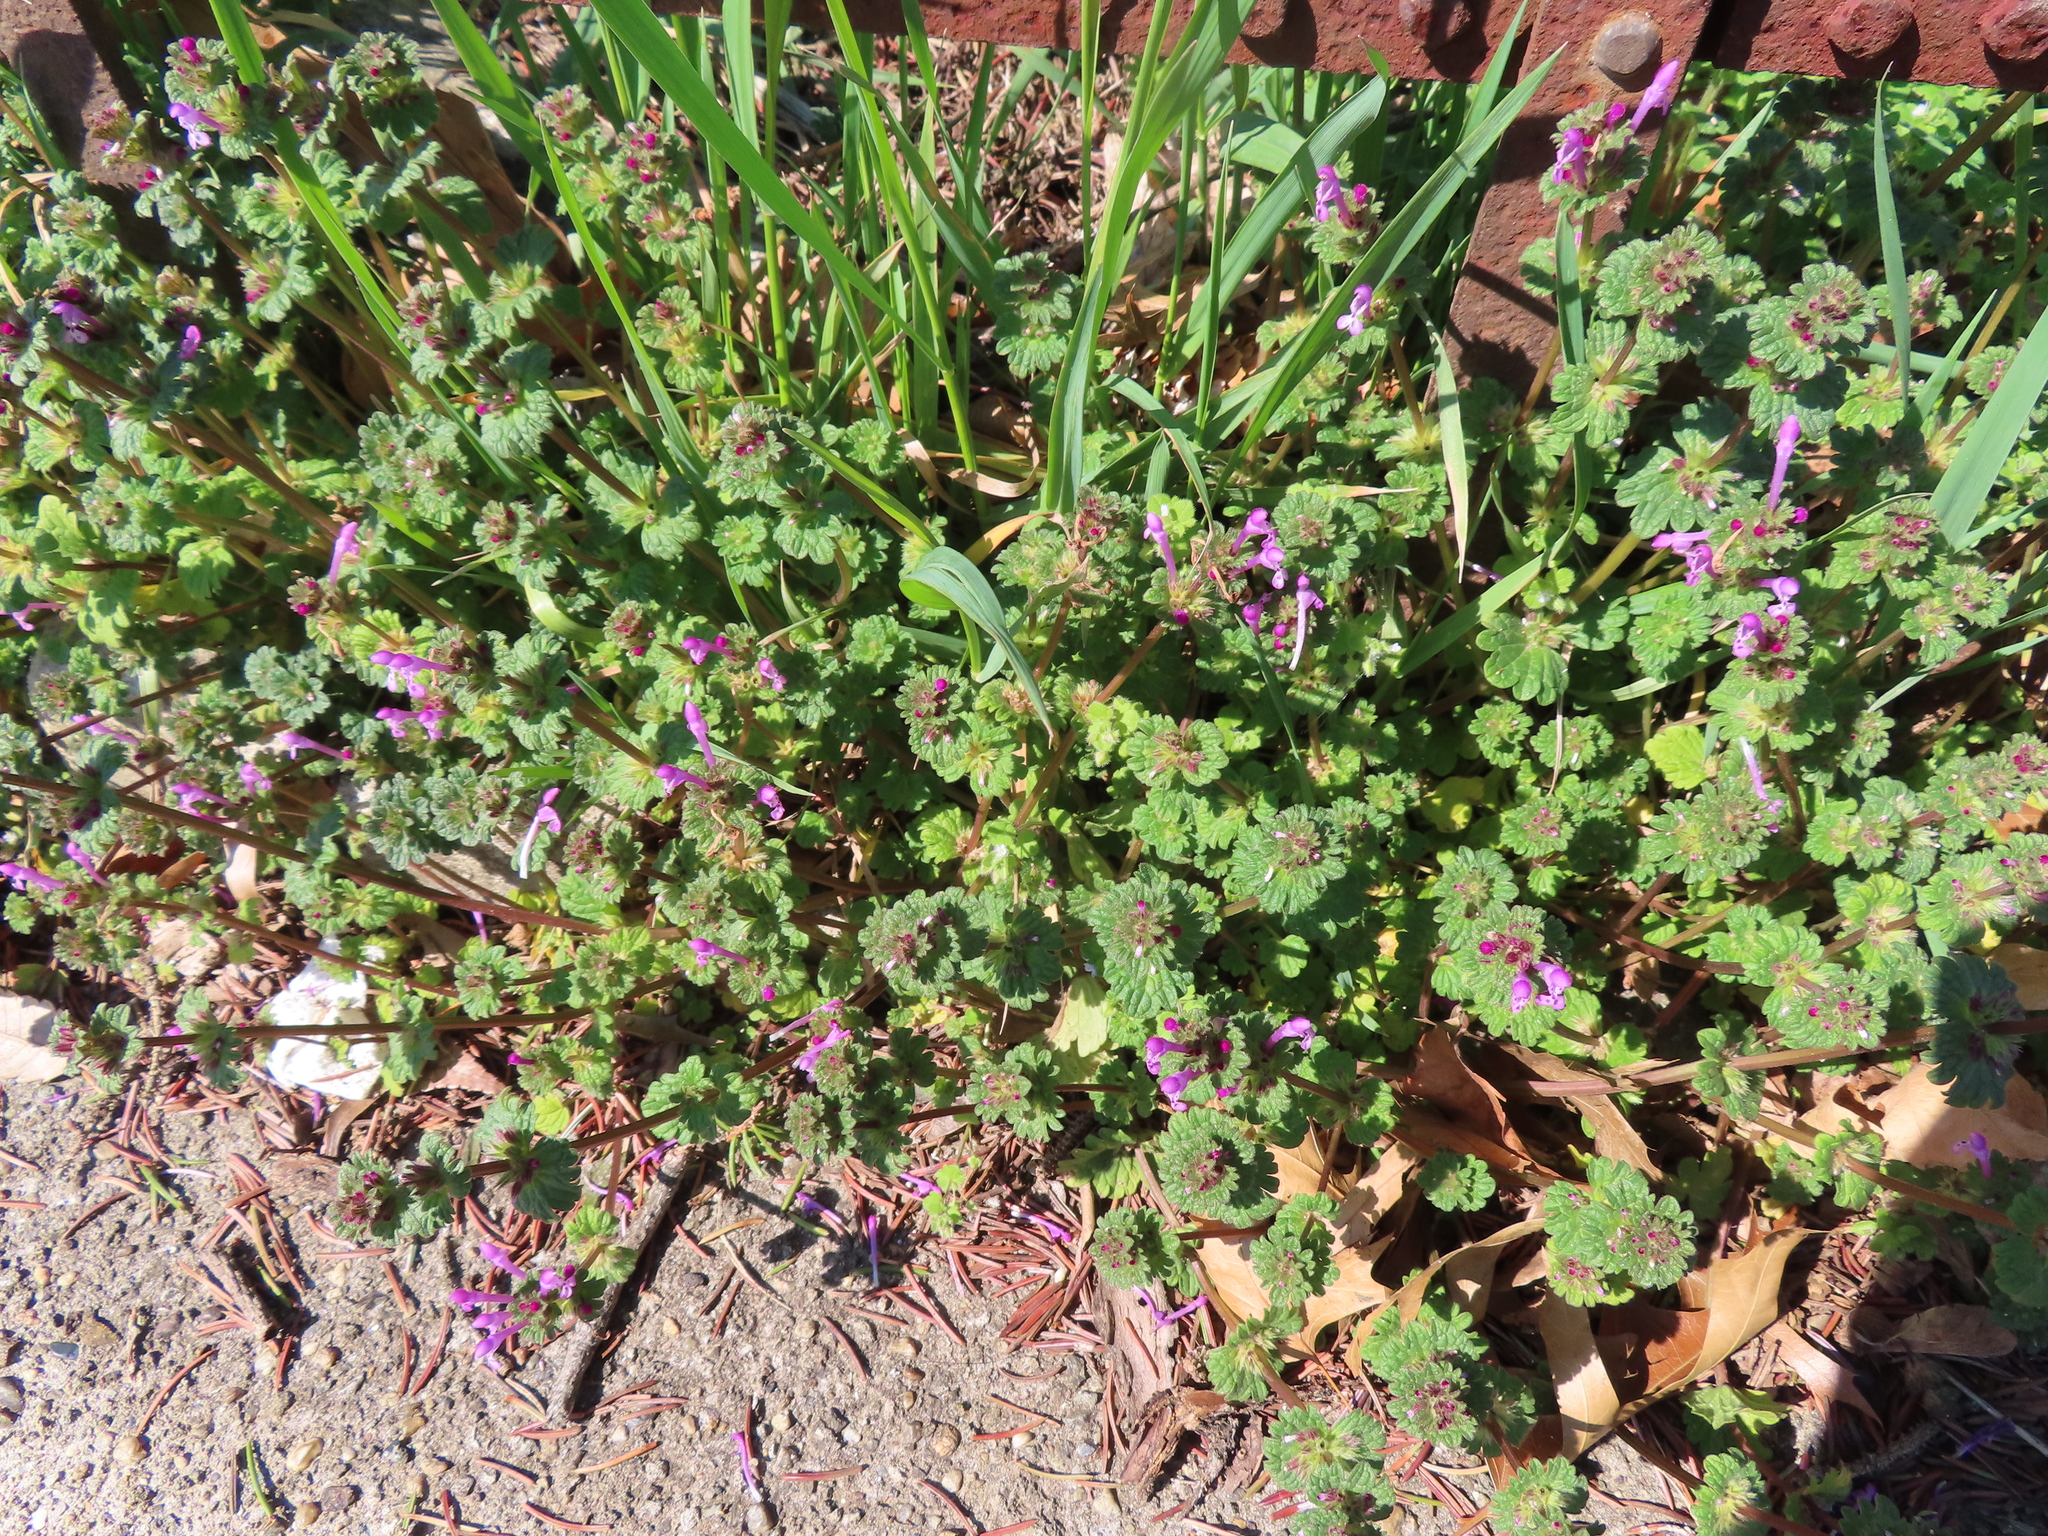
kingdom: Plantae
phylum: Tracheophyta
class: Magnoliopsida
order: Lamiales
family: Lamiaceae
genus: Lamium
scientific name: Lamium amplexicaule
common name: Henbit dead-nettle
